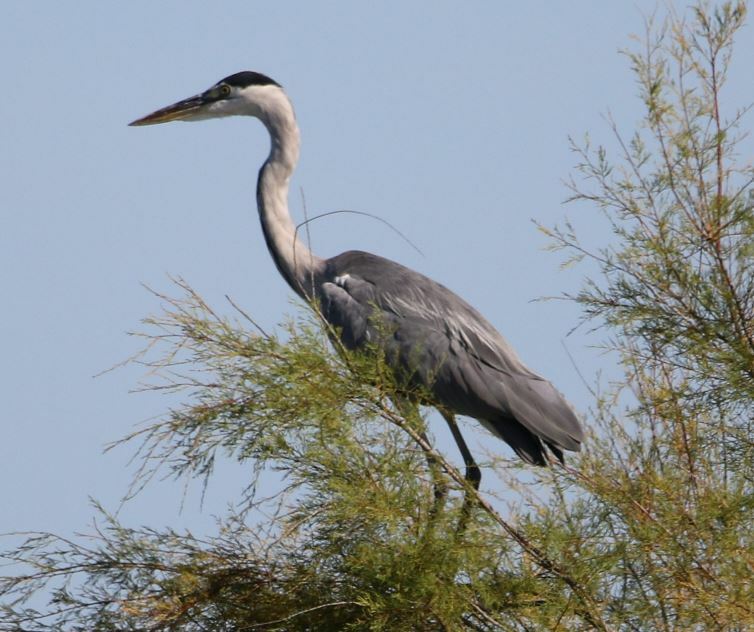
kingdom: Animalia
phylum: Chordata
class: Aves
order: Pelecaniformes
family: Ardeidae
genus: Ardea
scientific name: Ardea cinerea
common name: Grey heron
